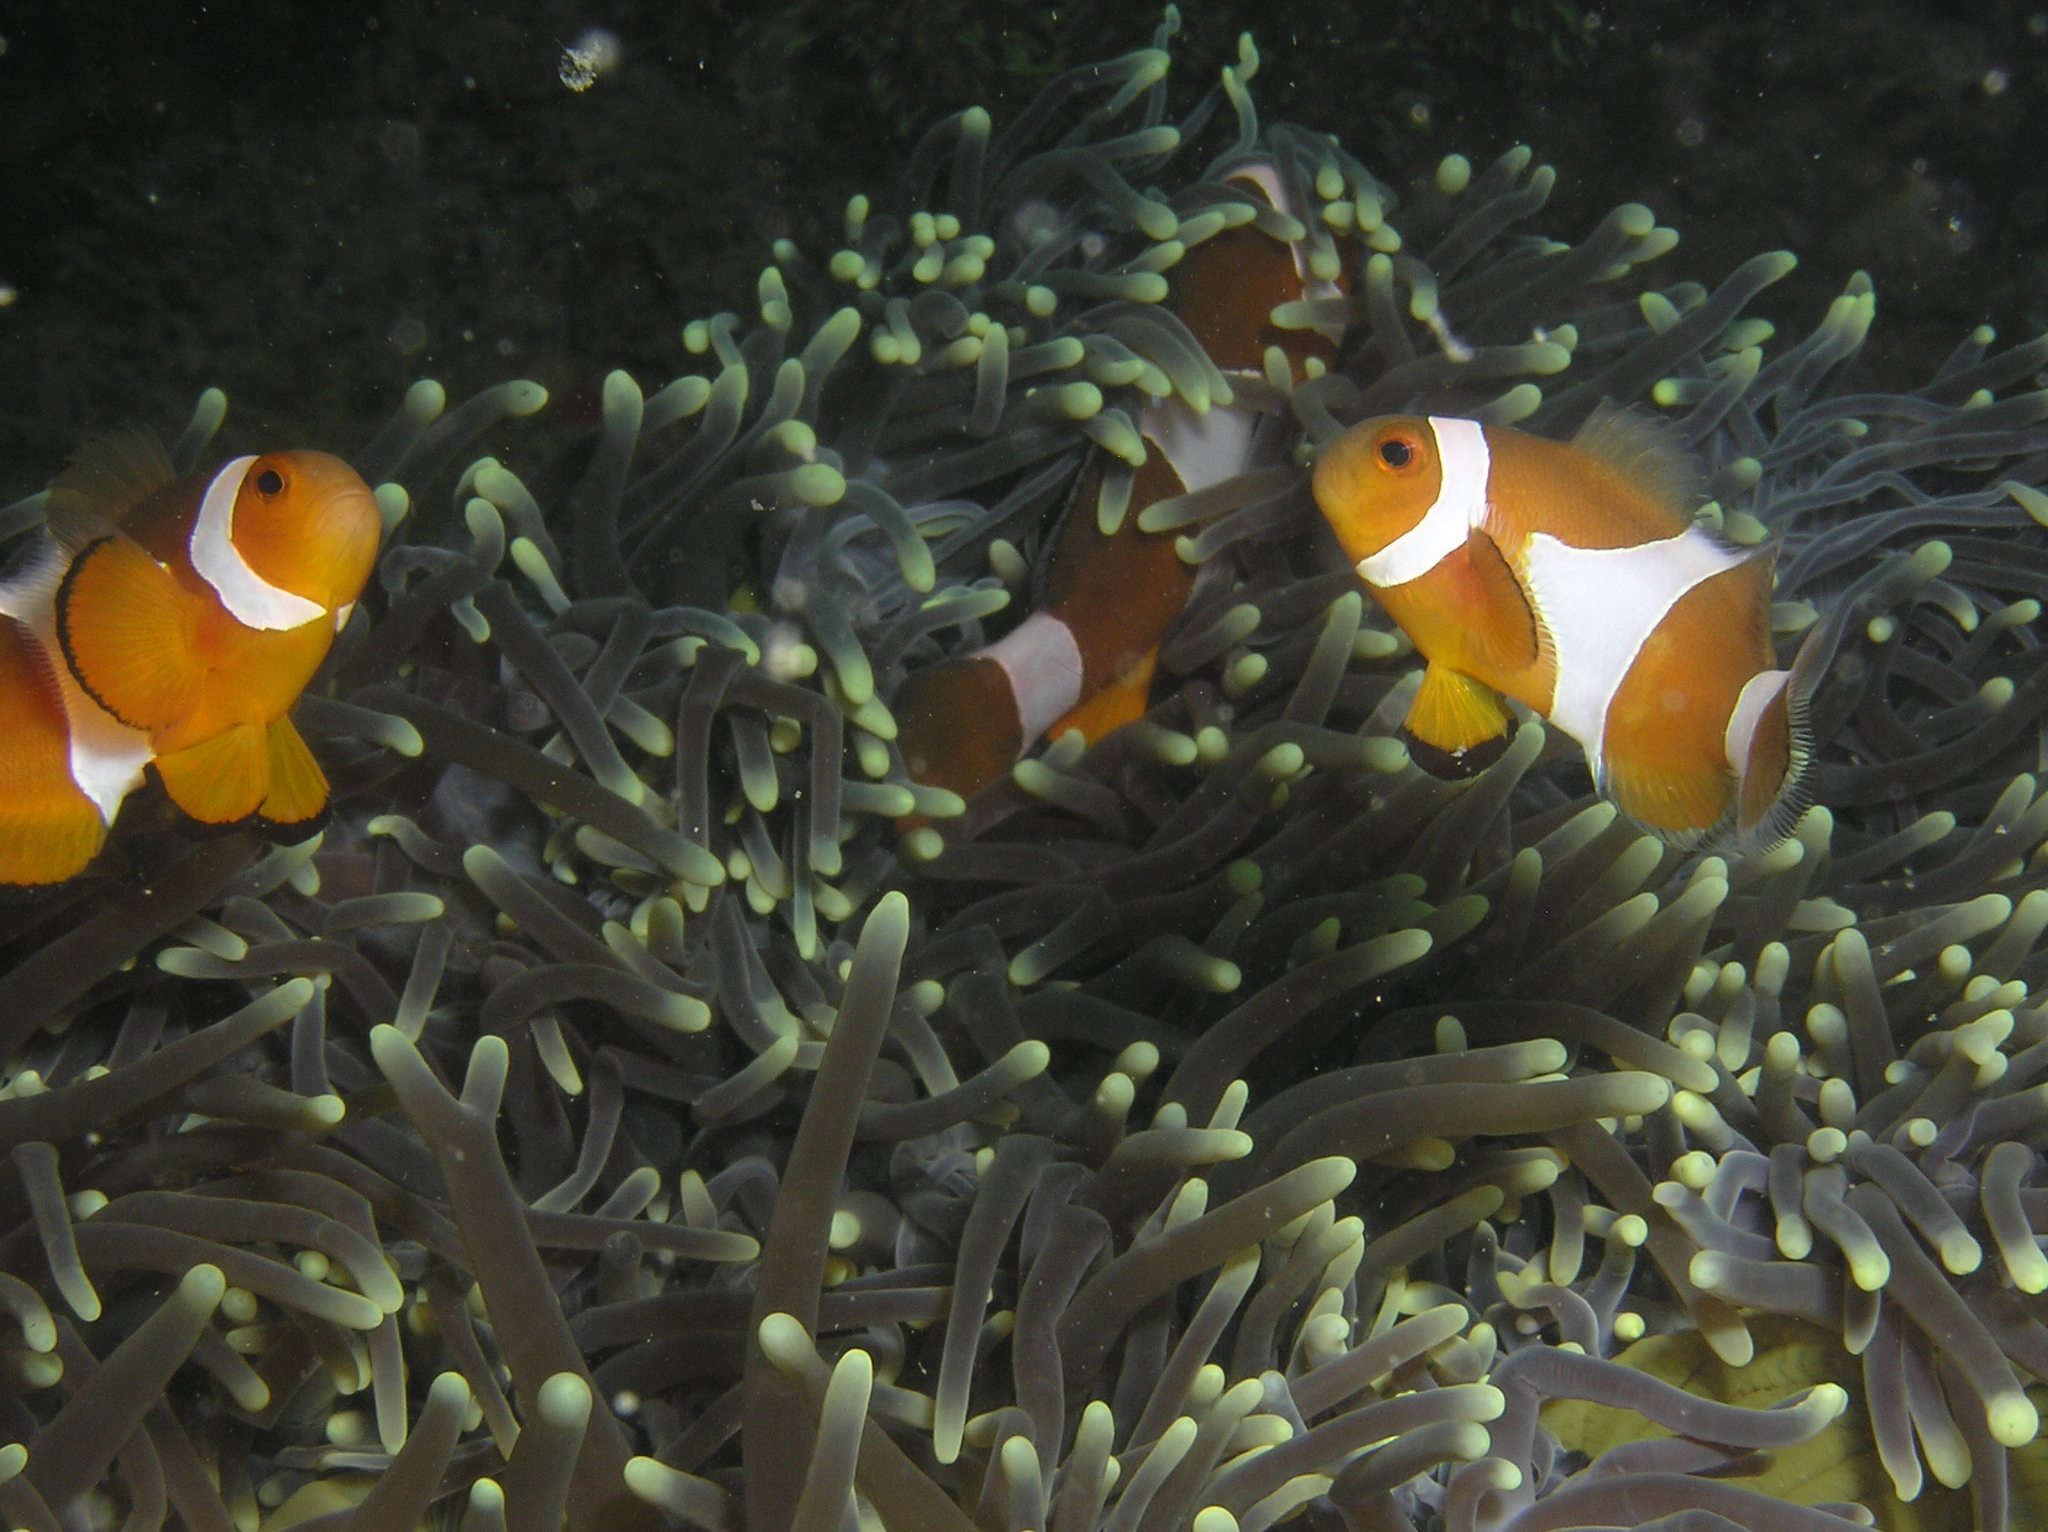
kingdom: Animalia
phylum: Chordata
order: Perciformes
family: Pomacentridae
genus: Amphiprion
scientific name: Amphiprion ocellaris
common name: Clown anemonefish
